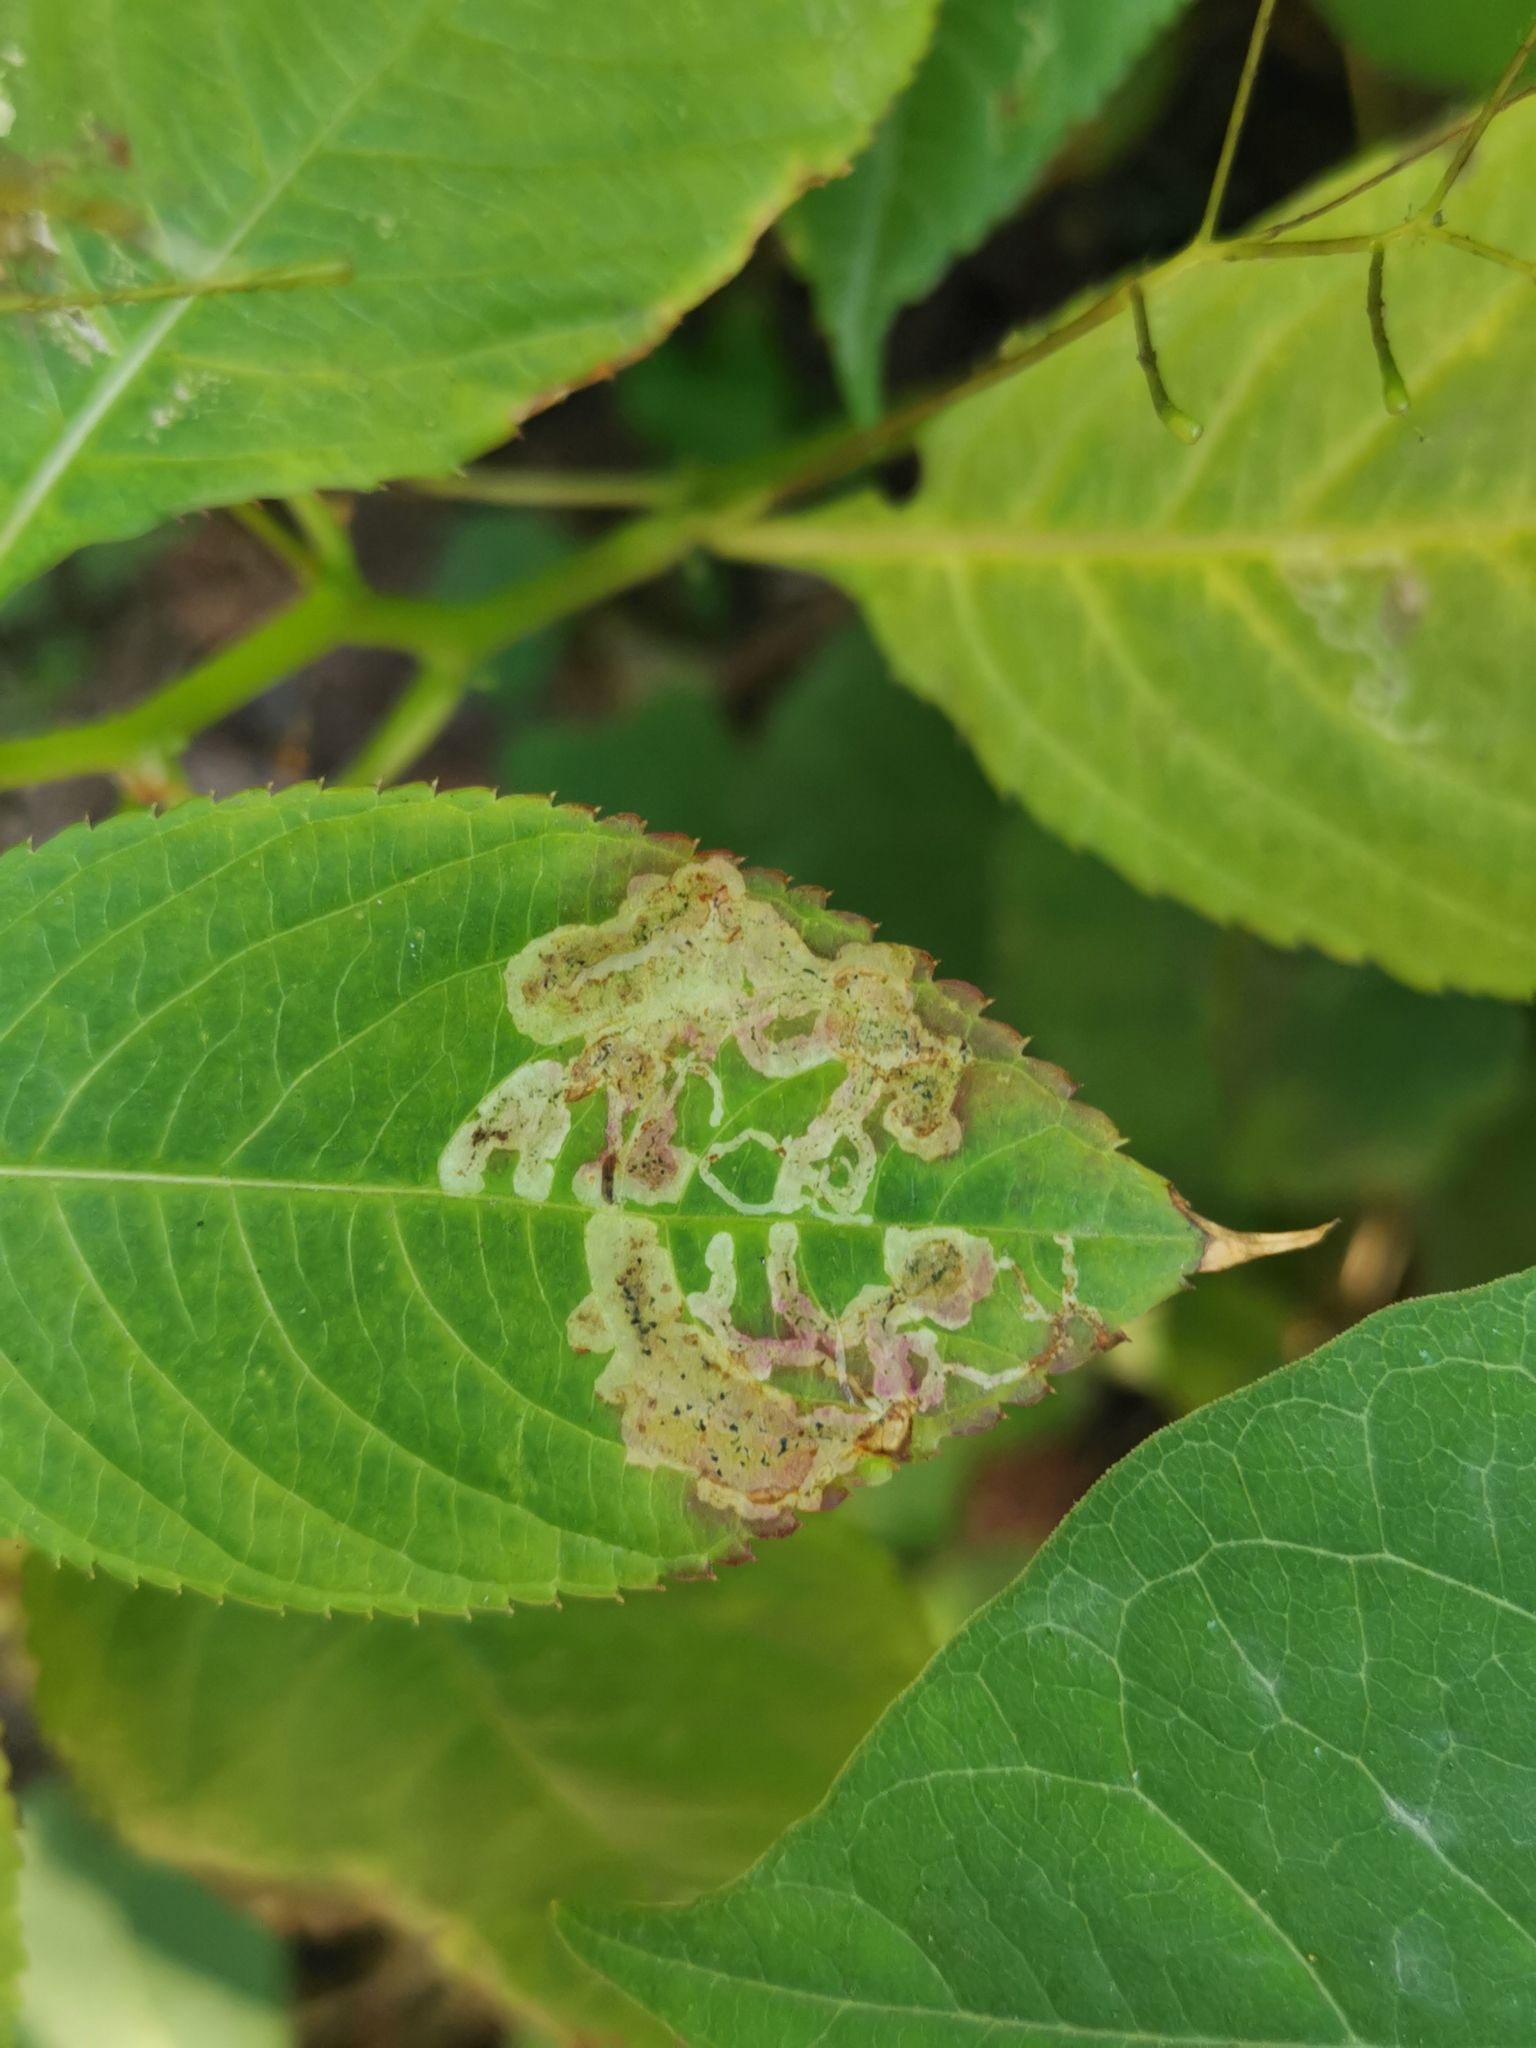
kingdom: Animalia
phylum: Arthropoda
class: Insecta
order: Diptera
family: Agromyzidae
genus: Phytoliriomyza
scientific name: Phytoliriomyza melampyga
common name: Jewelweed leaf-miner fly
